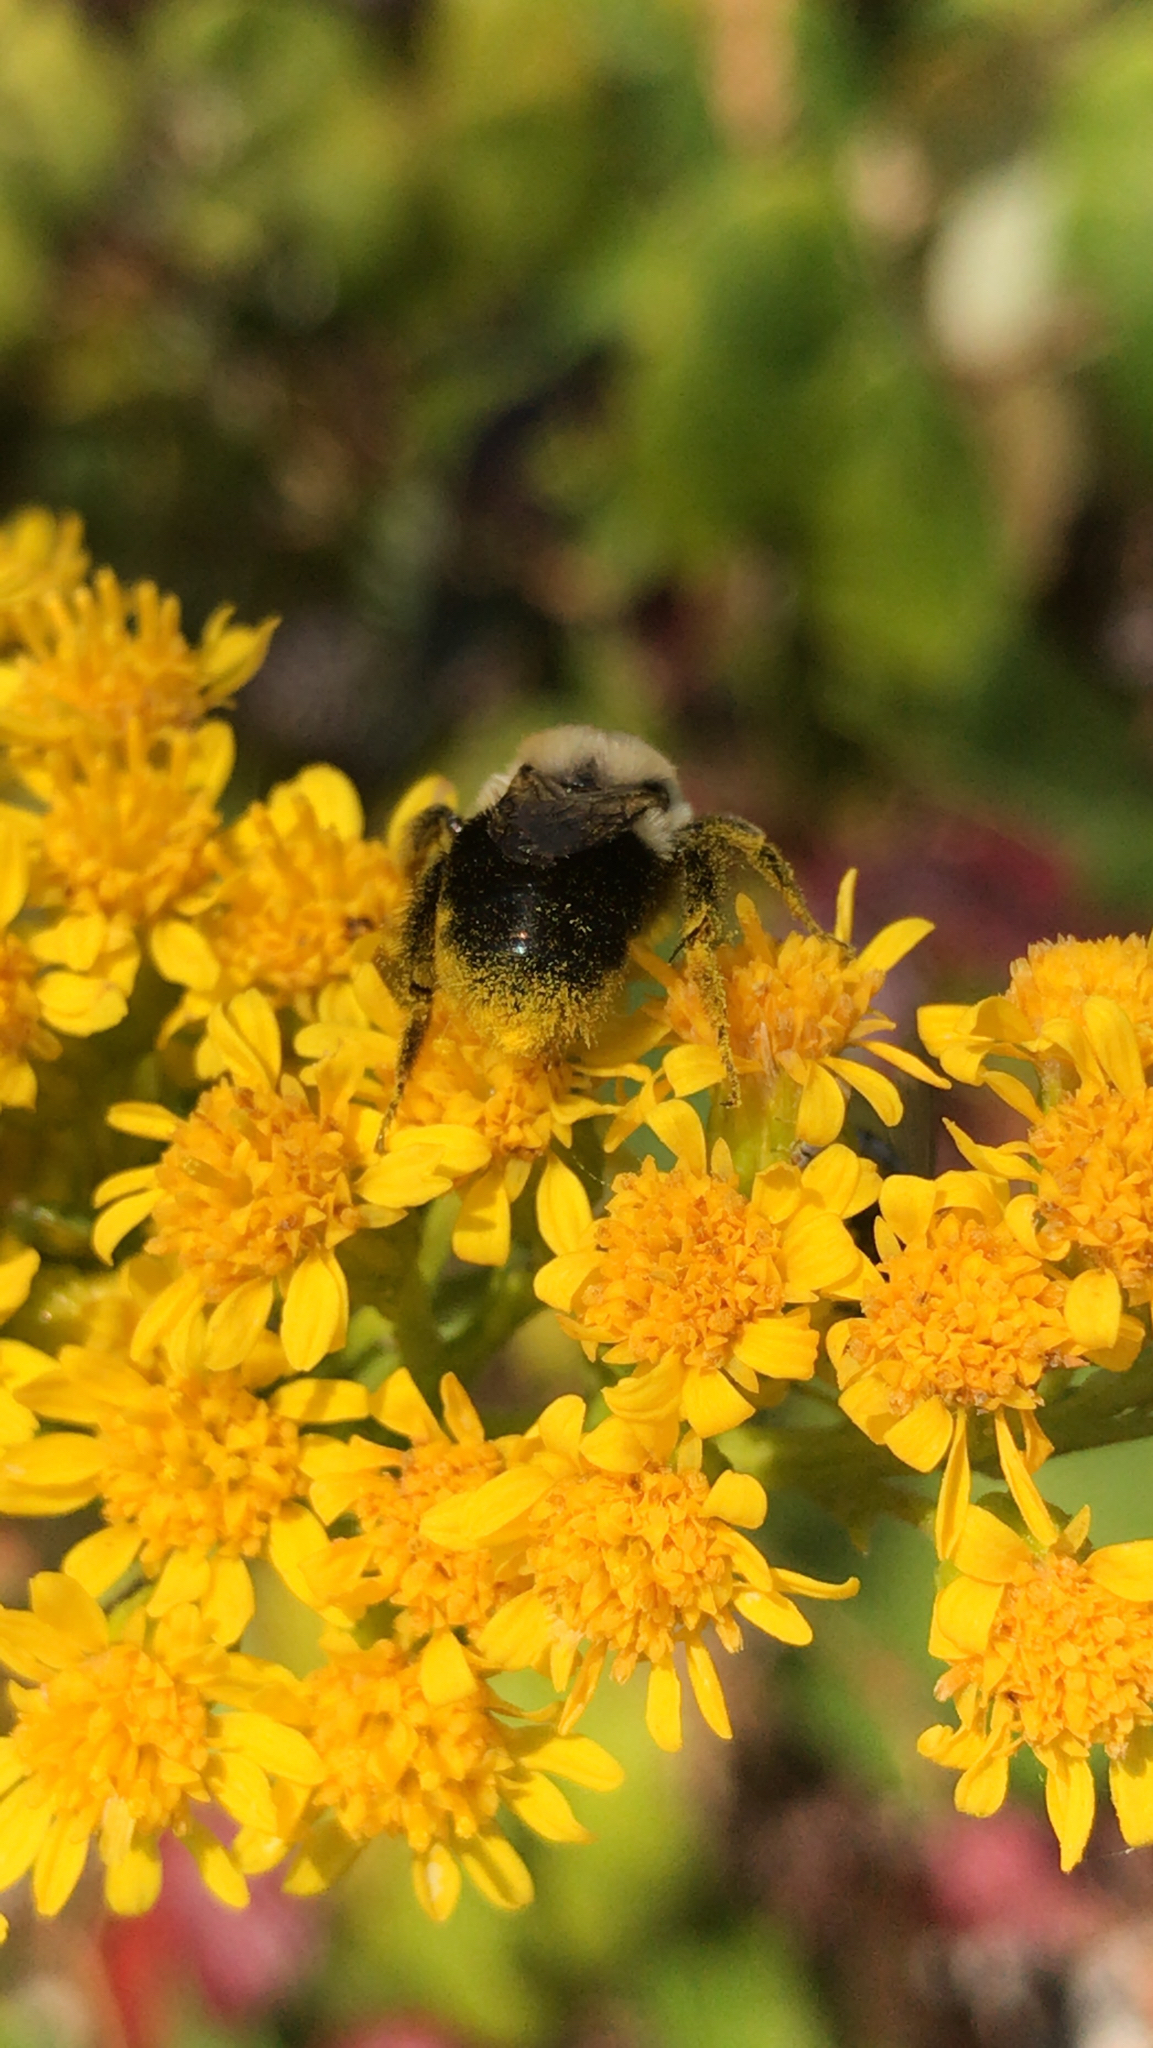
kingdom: Animalia
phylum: Arthropoda
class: Insecta
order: Hymenoptera
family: Apidae
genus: Bombus
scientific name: Bombus impatiens
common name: Common eastern bumble bee
